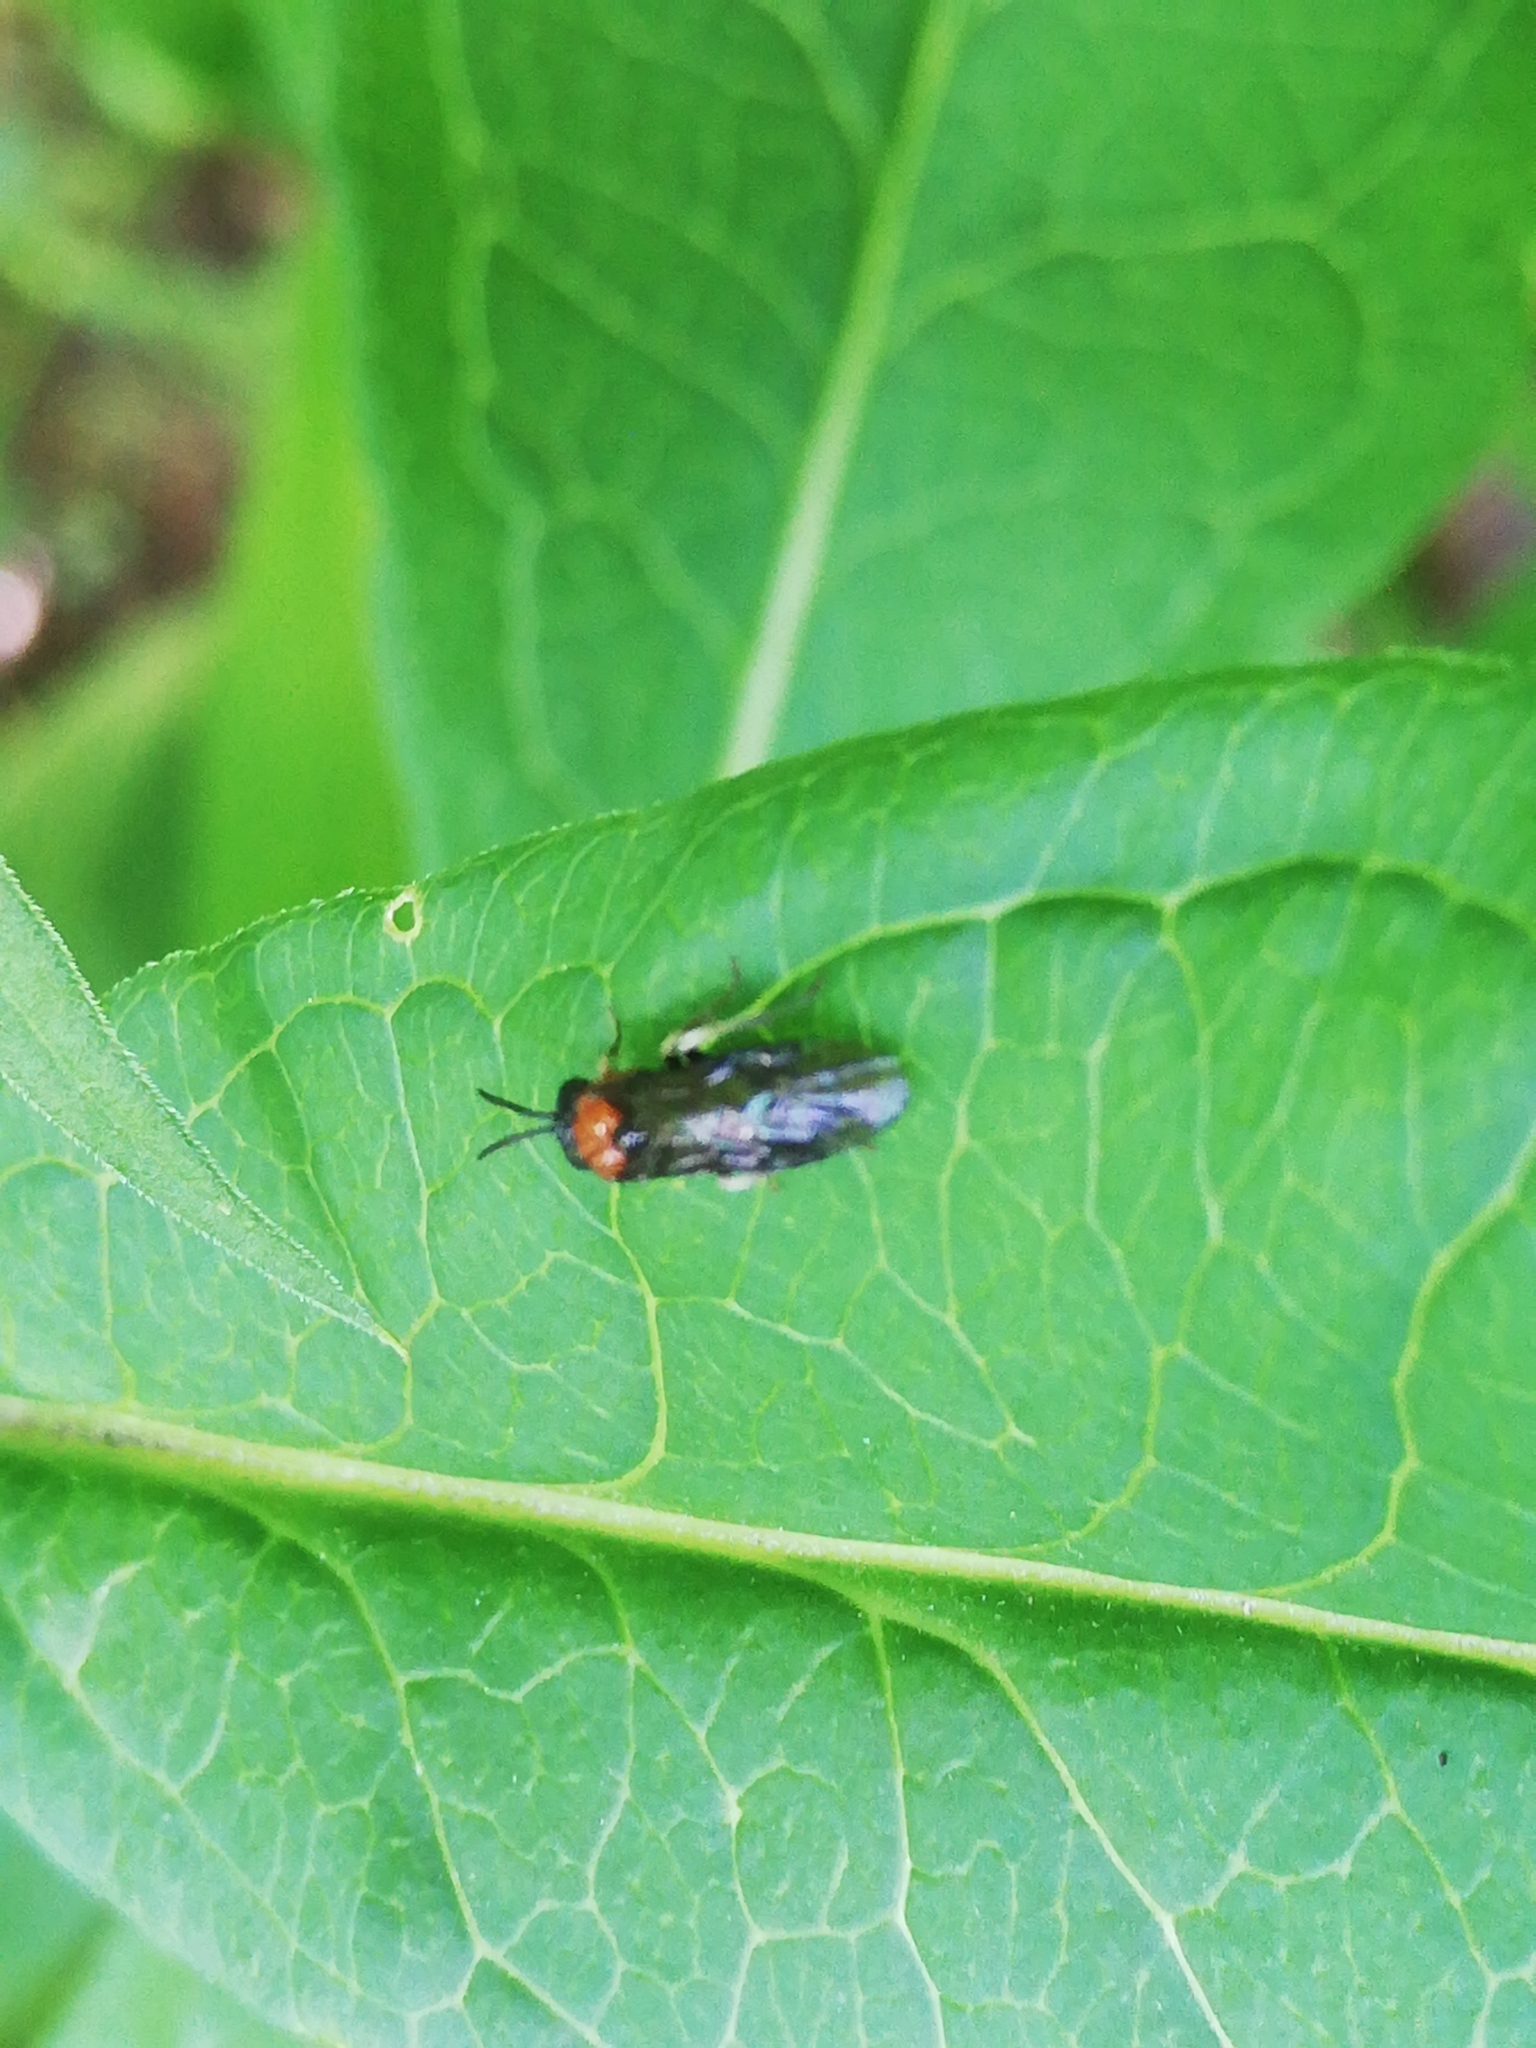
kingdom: Animalia
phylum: Arthropoda
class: Insecta
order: Hymenoptera
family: Tenthredinidae
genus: Eutomostethus
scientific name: Eutomostethus ephippium
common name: Tenthredid wasp
